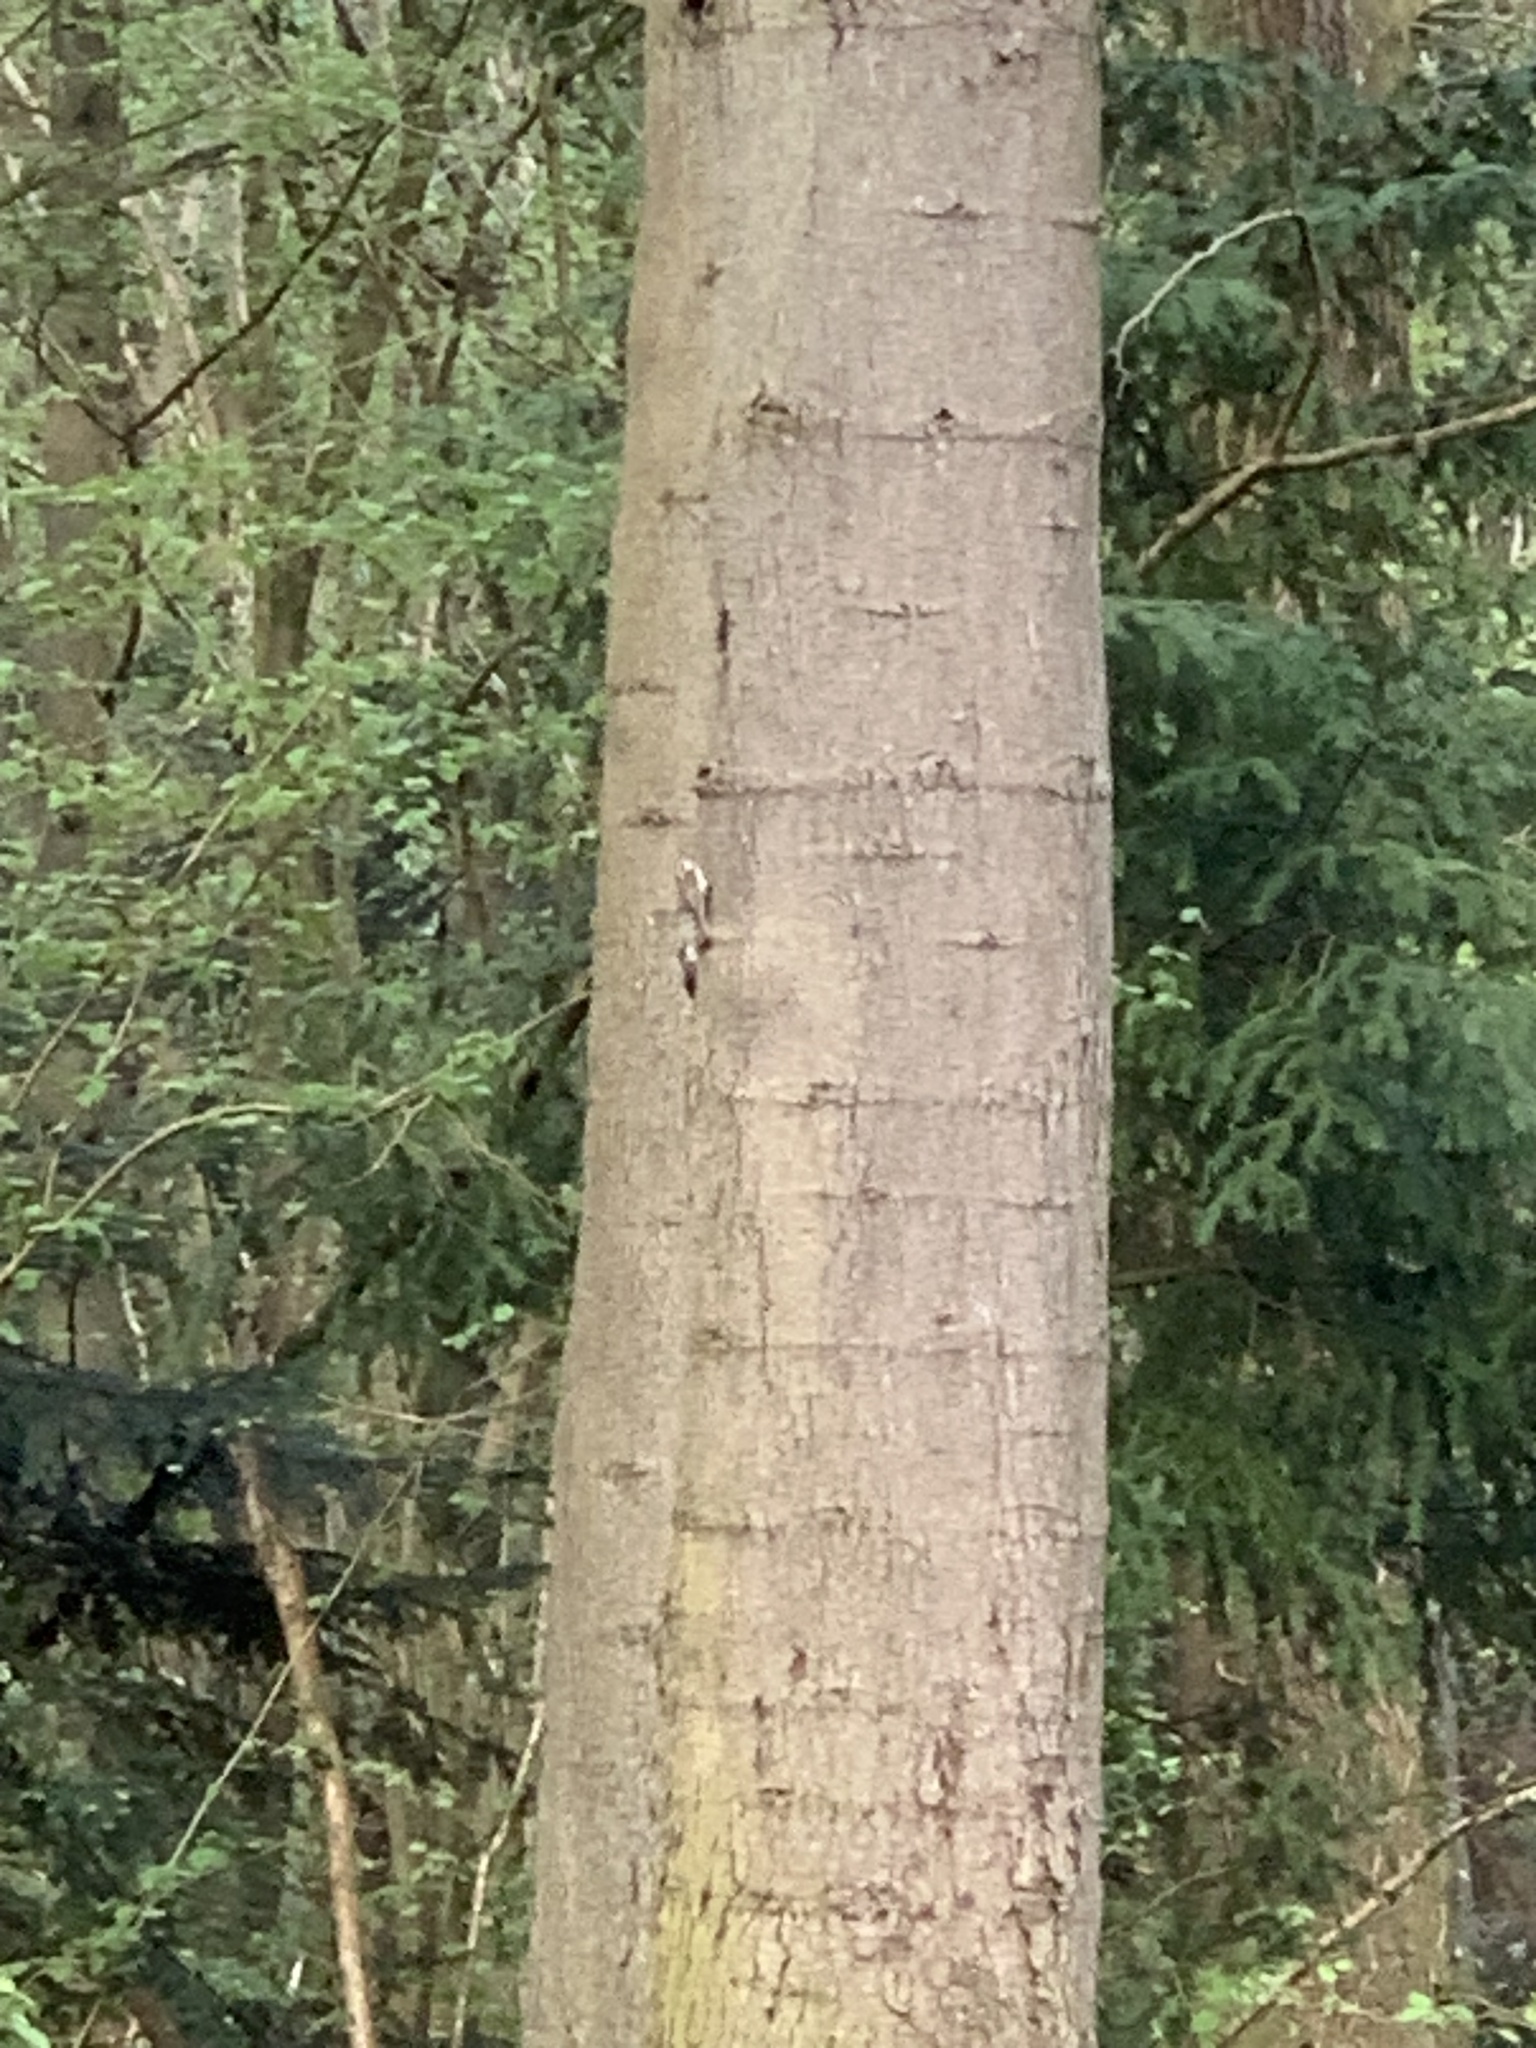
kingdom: Animalia
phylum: Chordata
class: Aves
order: Passeriformes
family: Certhiidae
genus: Certhia
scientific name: Certhia familiaris
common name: Eurasian treecreeper
